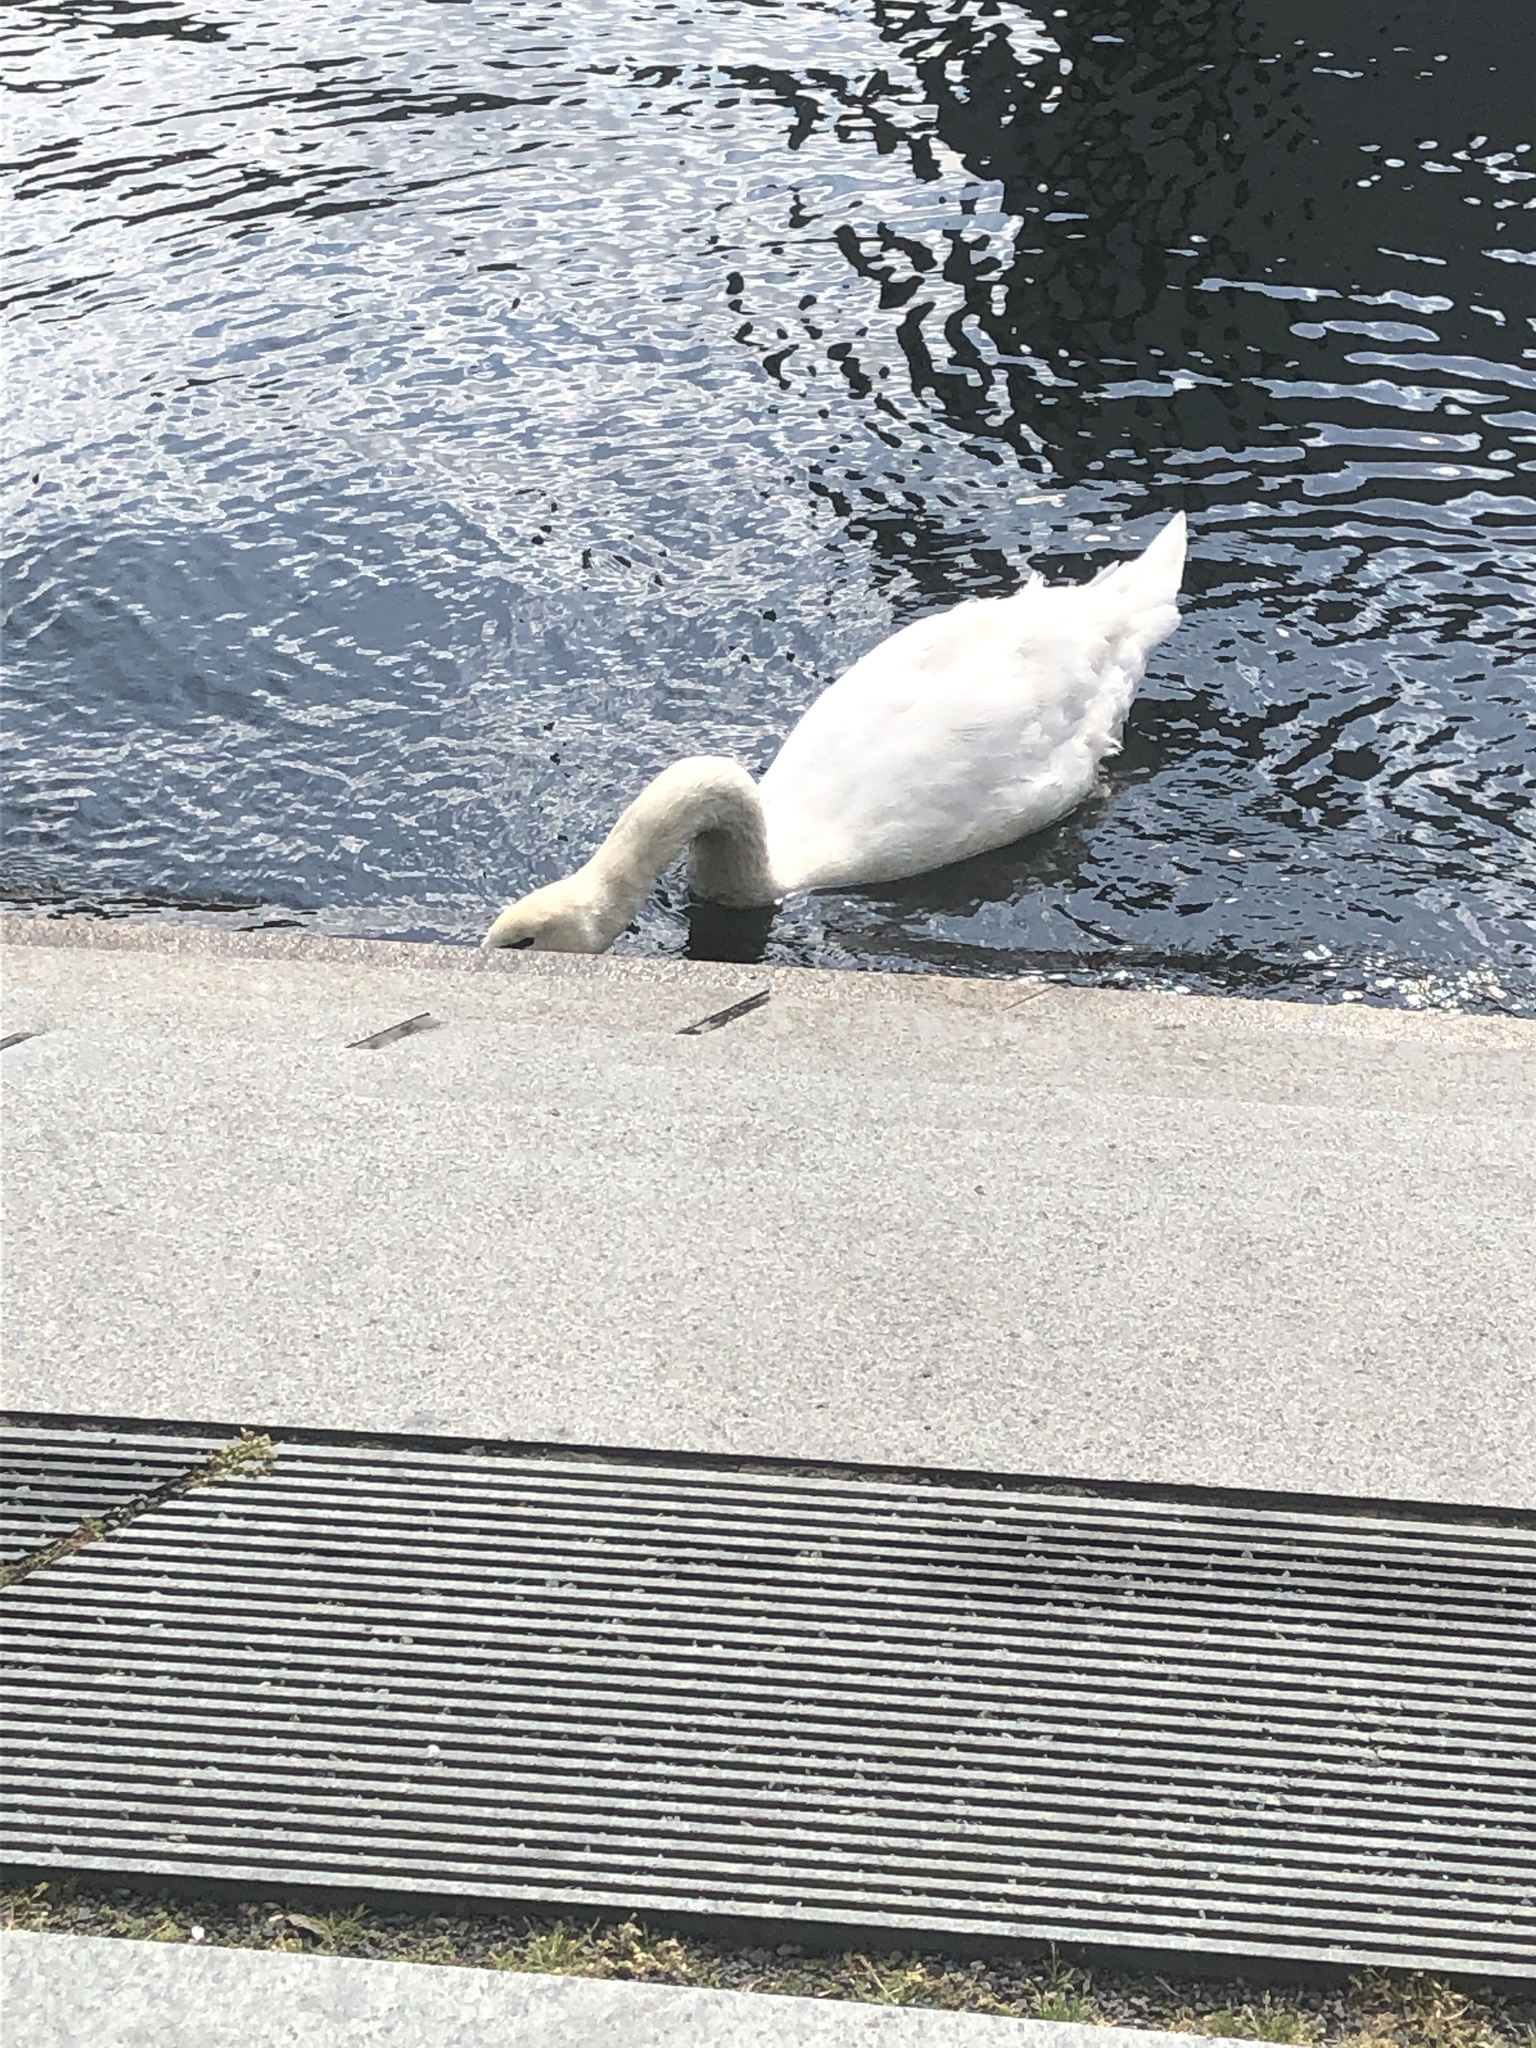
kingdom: Animalia
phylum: Chordata
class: Aves
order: Anseriformes
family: Anatidae
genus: Cygnus
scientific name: Cygnus olor
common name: Mute swan
